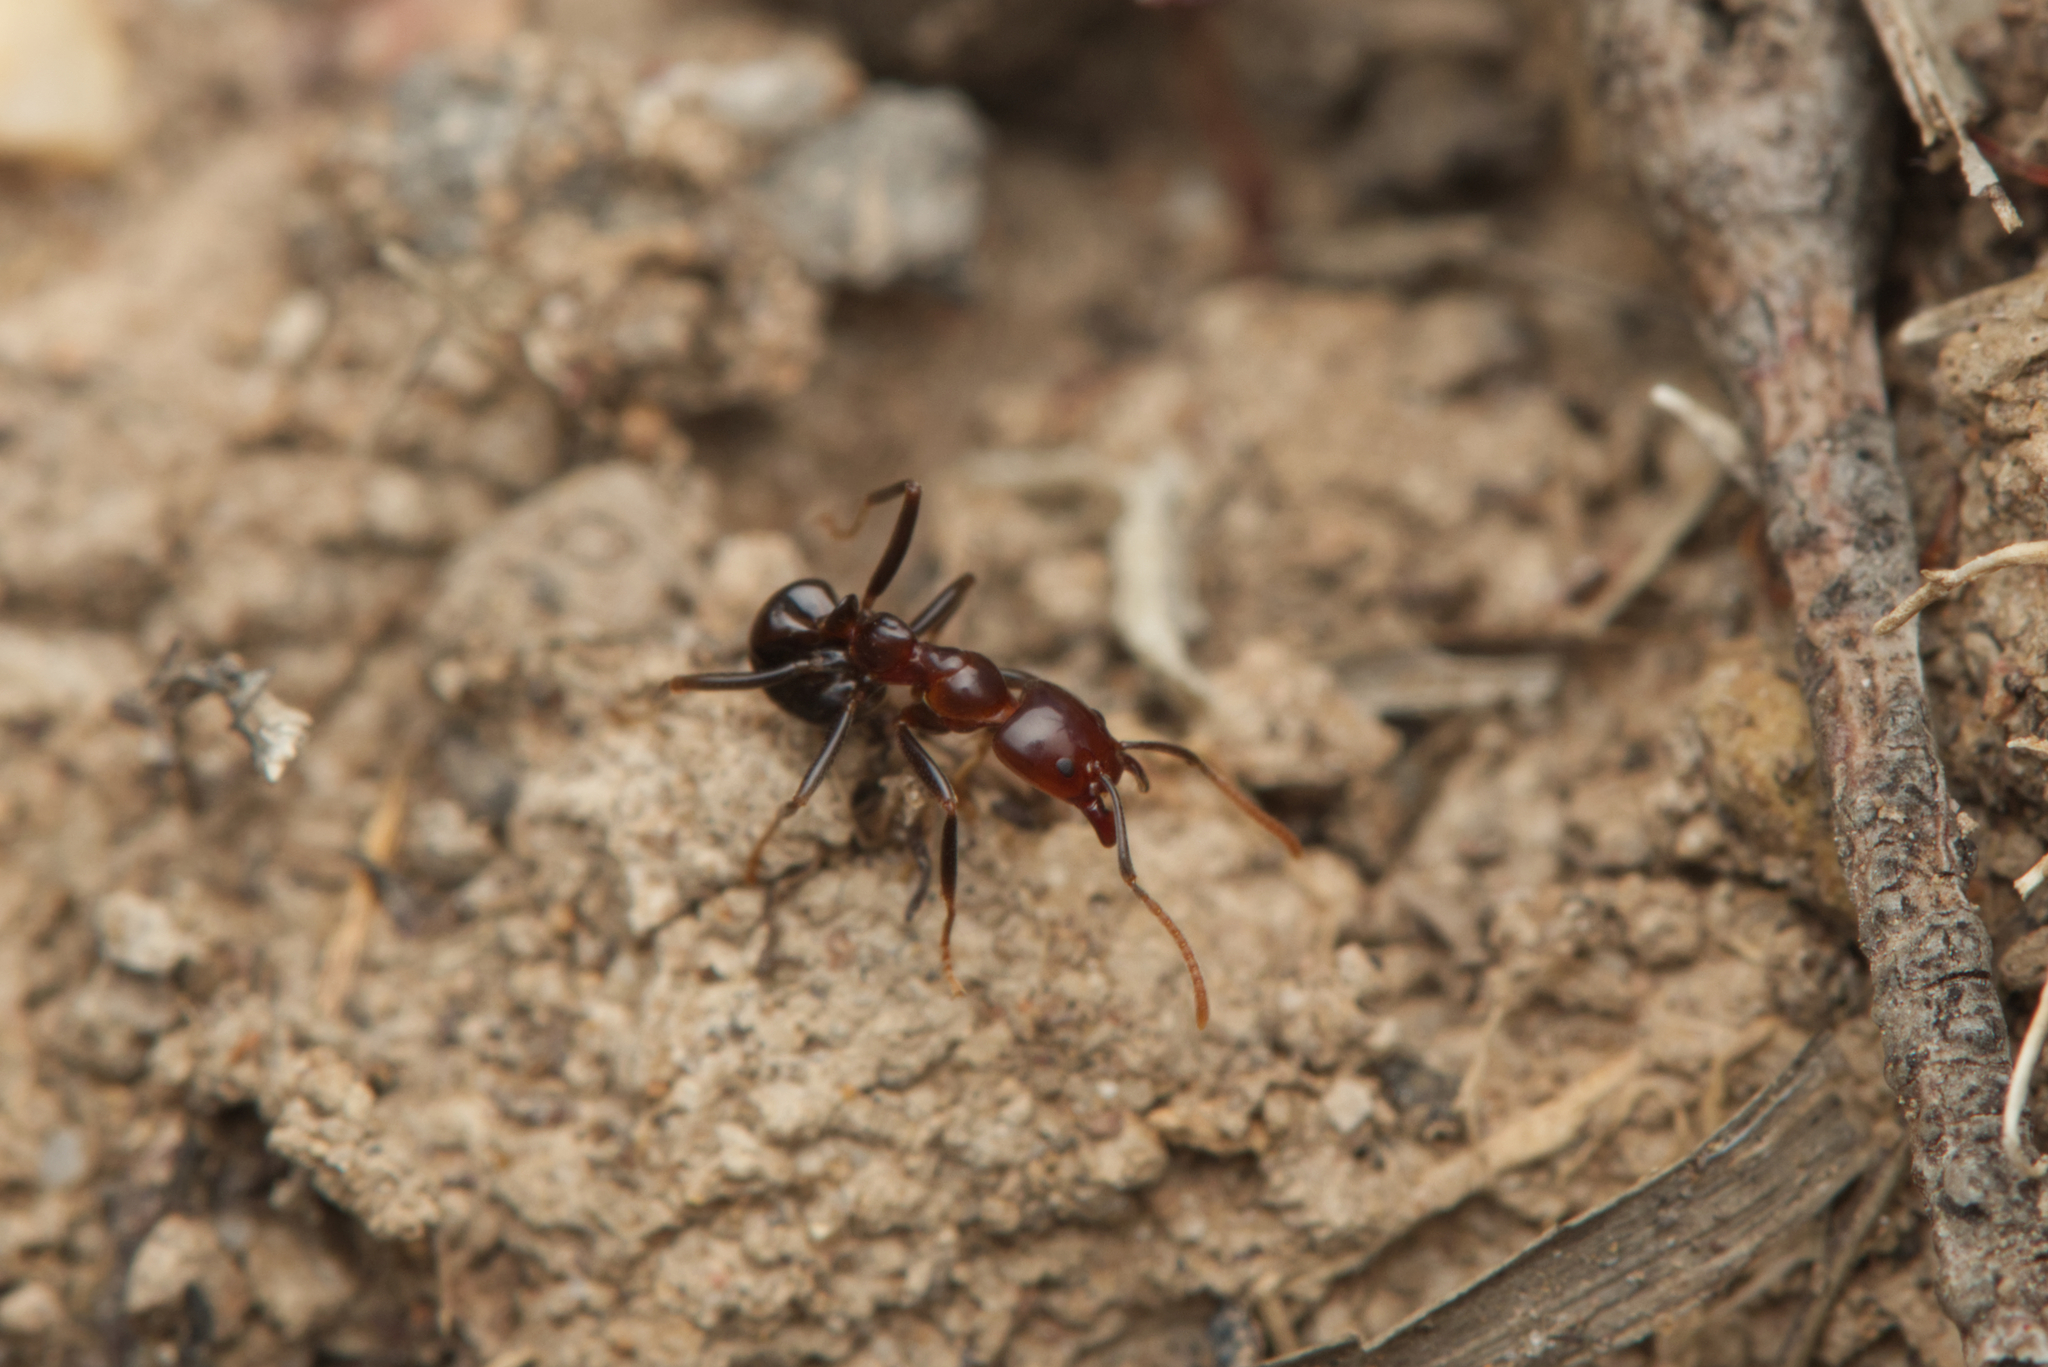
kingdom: Animalia
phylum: Arthropoda
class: Insecta
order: Hymenoptera
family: Formicidae
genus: Papyrius
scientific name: Papyrius nitidus
